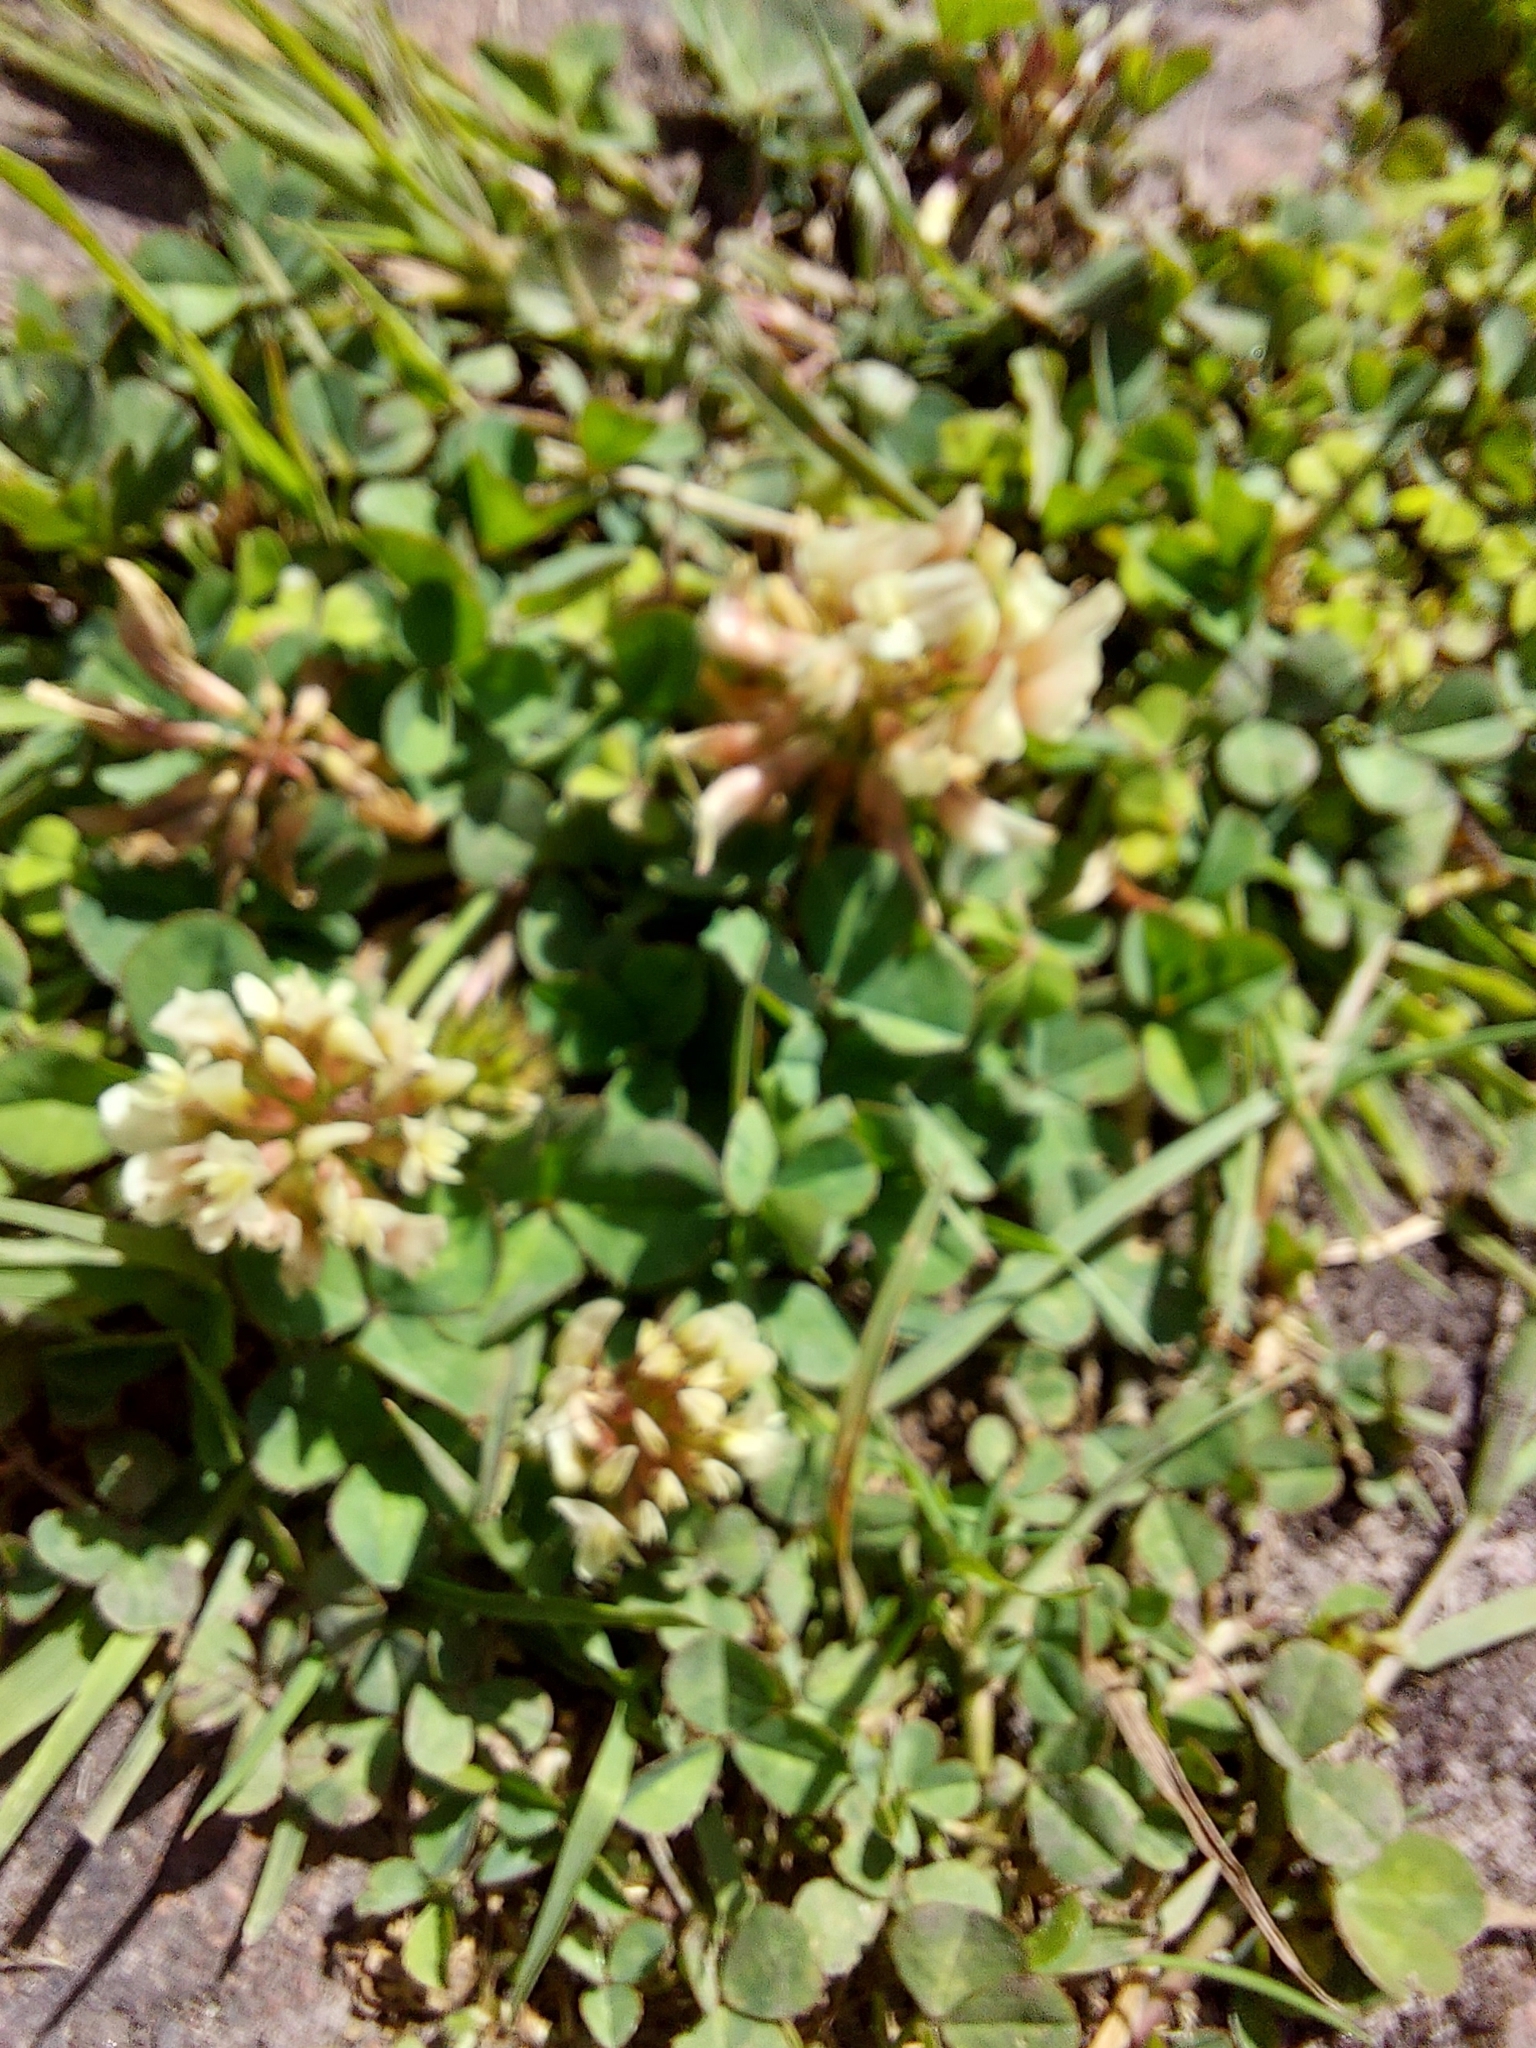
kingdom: Plantae
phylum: Tracheophyta
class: Magnoliopsida
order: Fabales
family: Fabaceae
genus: Trifolium
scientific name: Trifolium repens
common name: White clover
